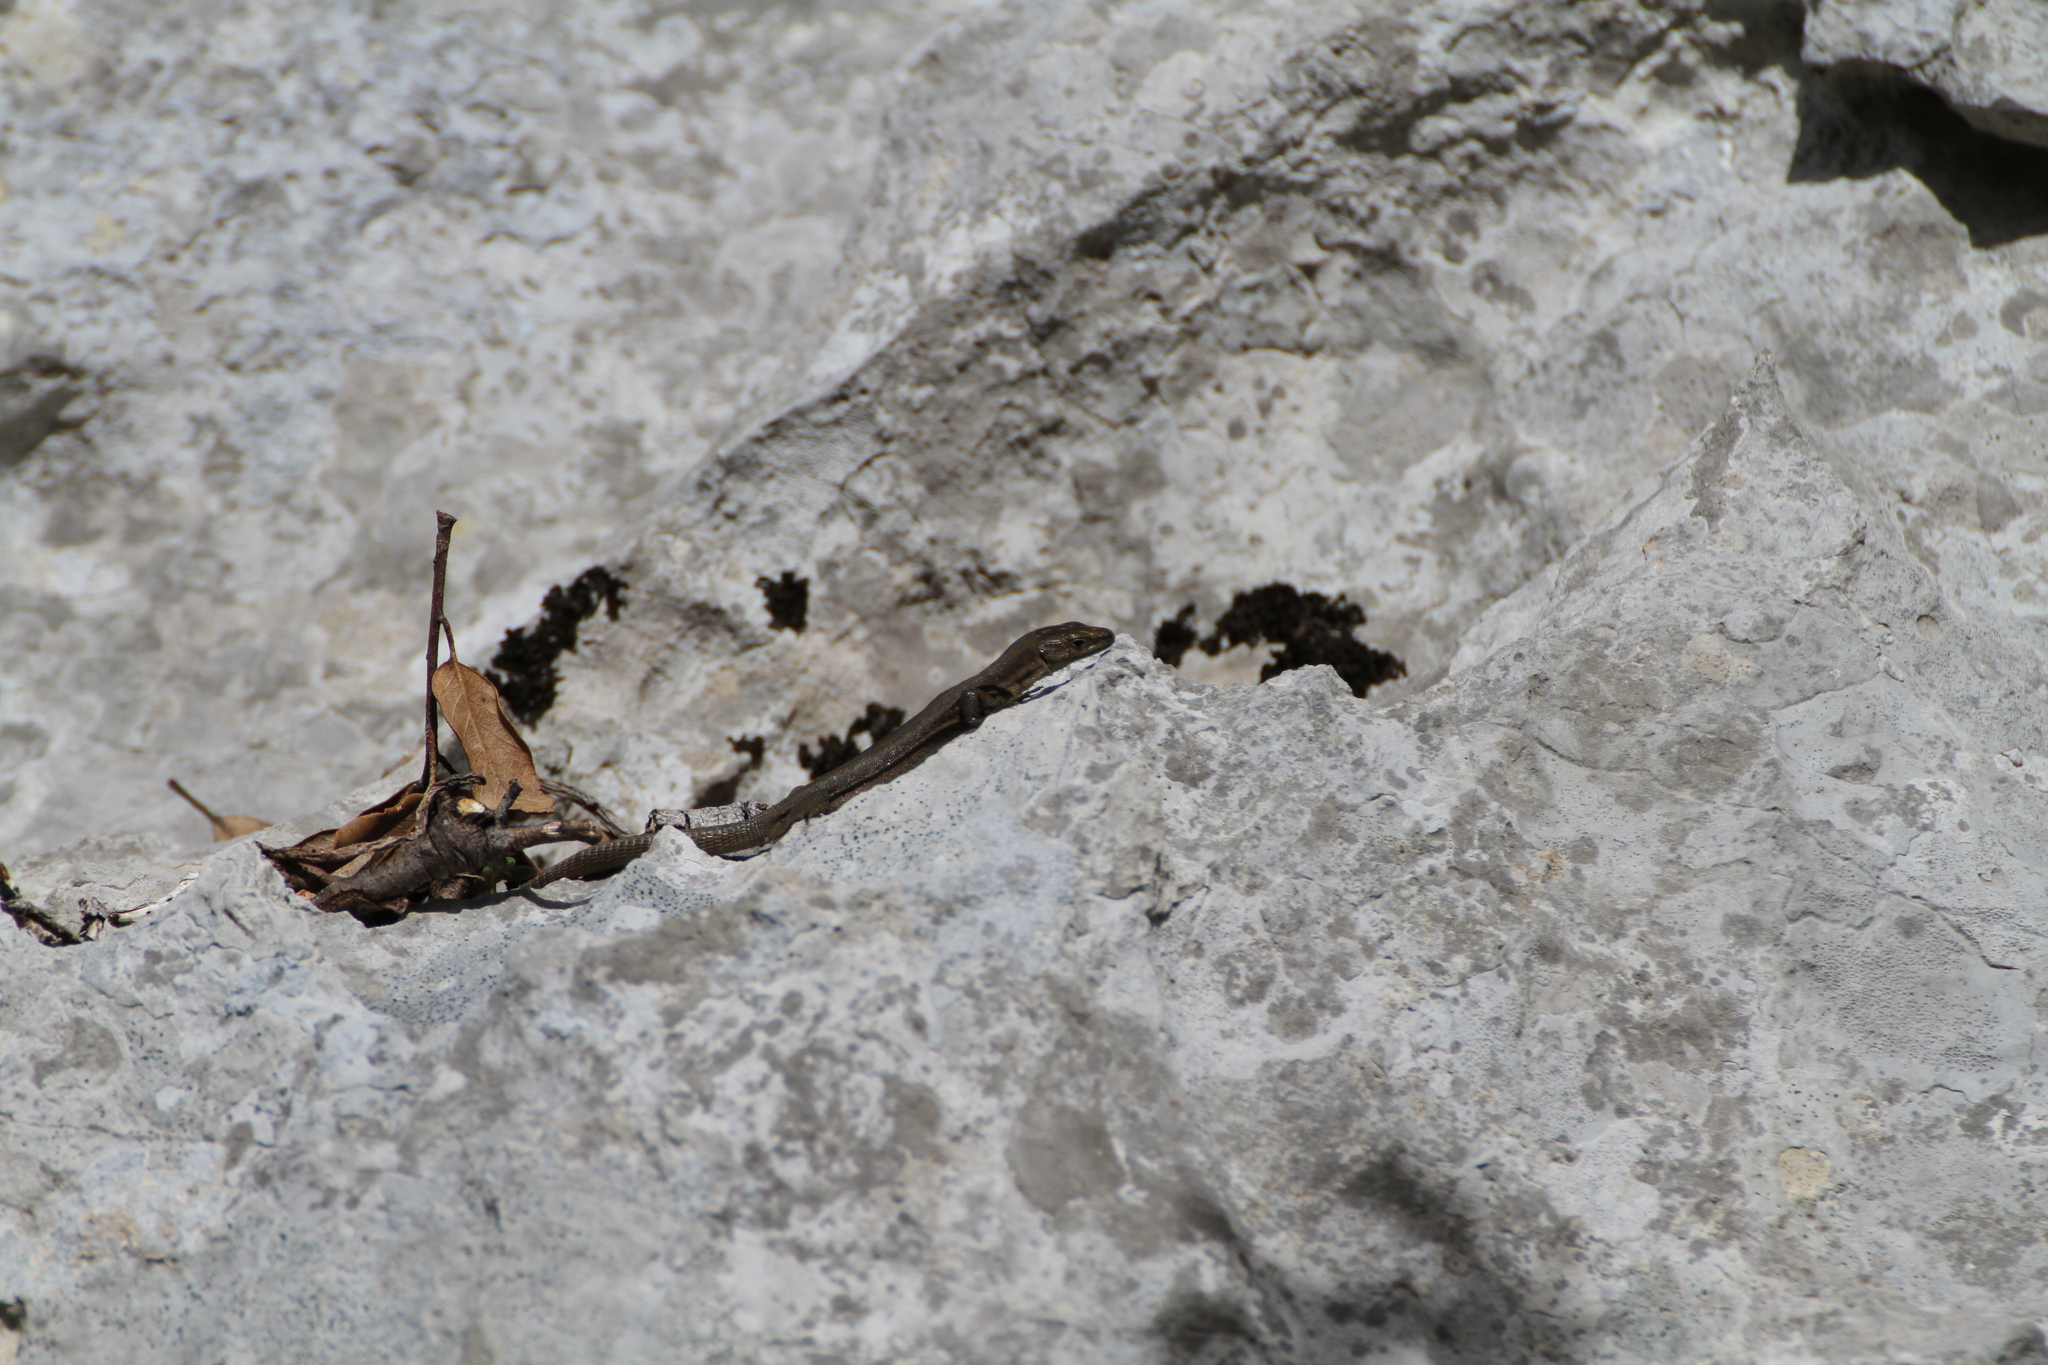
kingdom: Animalia
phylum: Chordata
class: Squamata
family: Lacertidae
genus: Podarcis
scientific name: Podarcis liolepis
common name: Catalonian wall lizard
